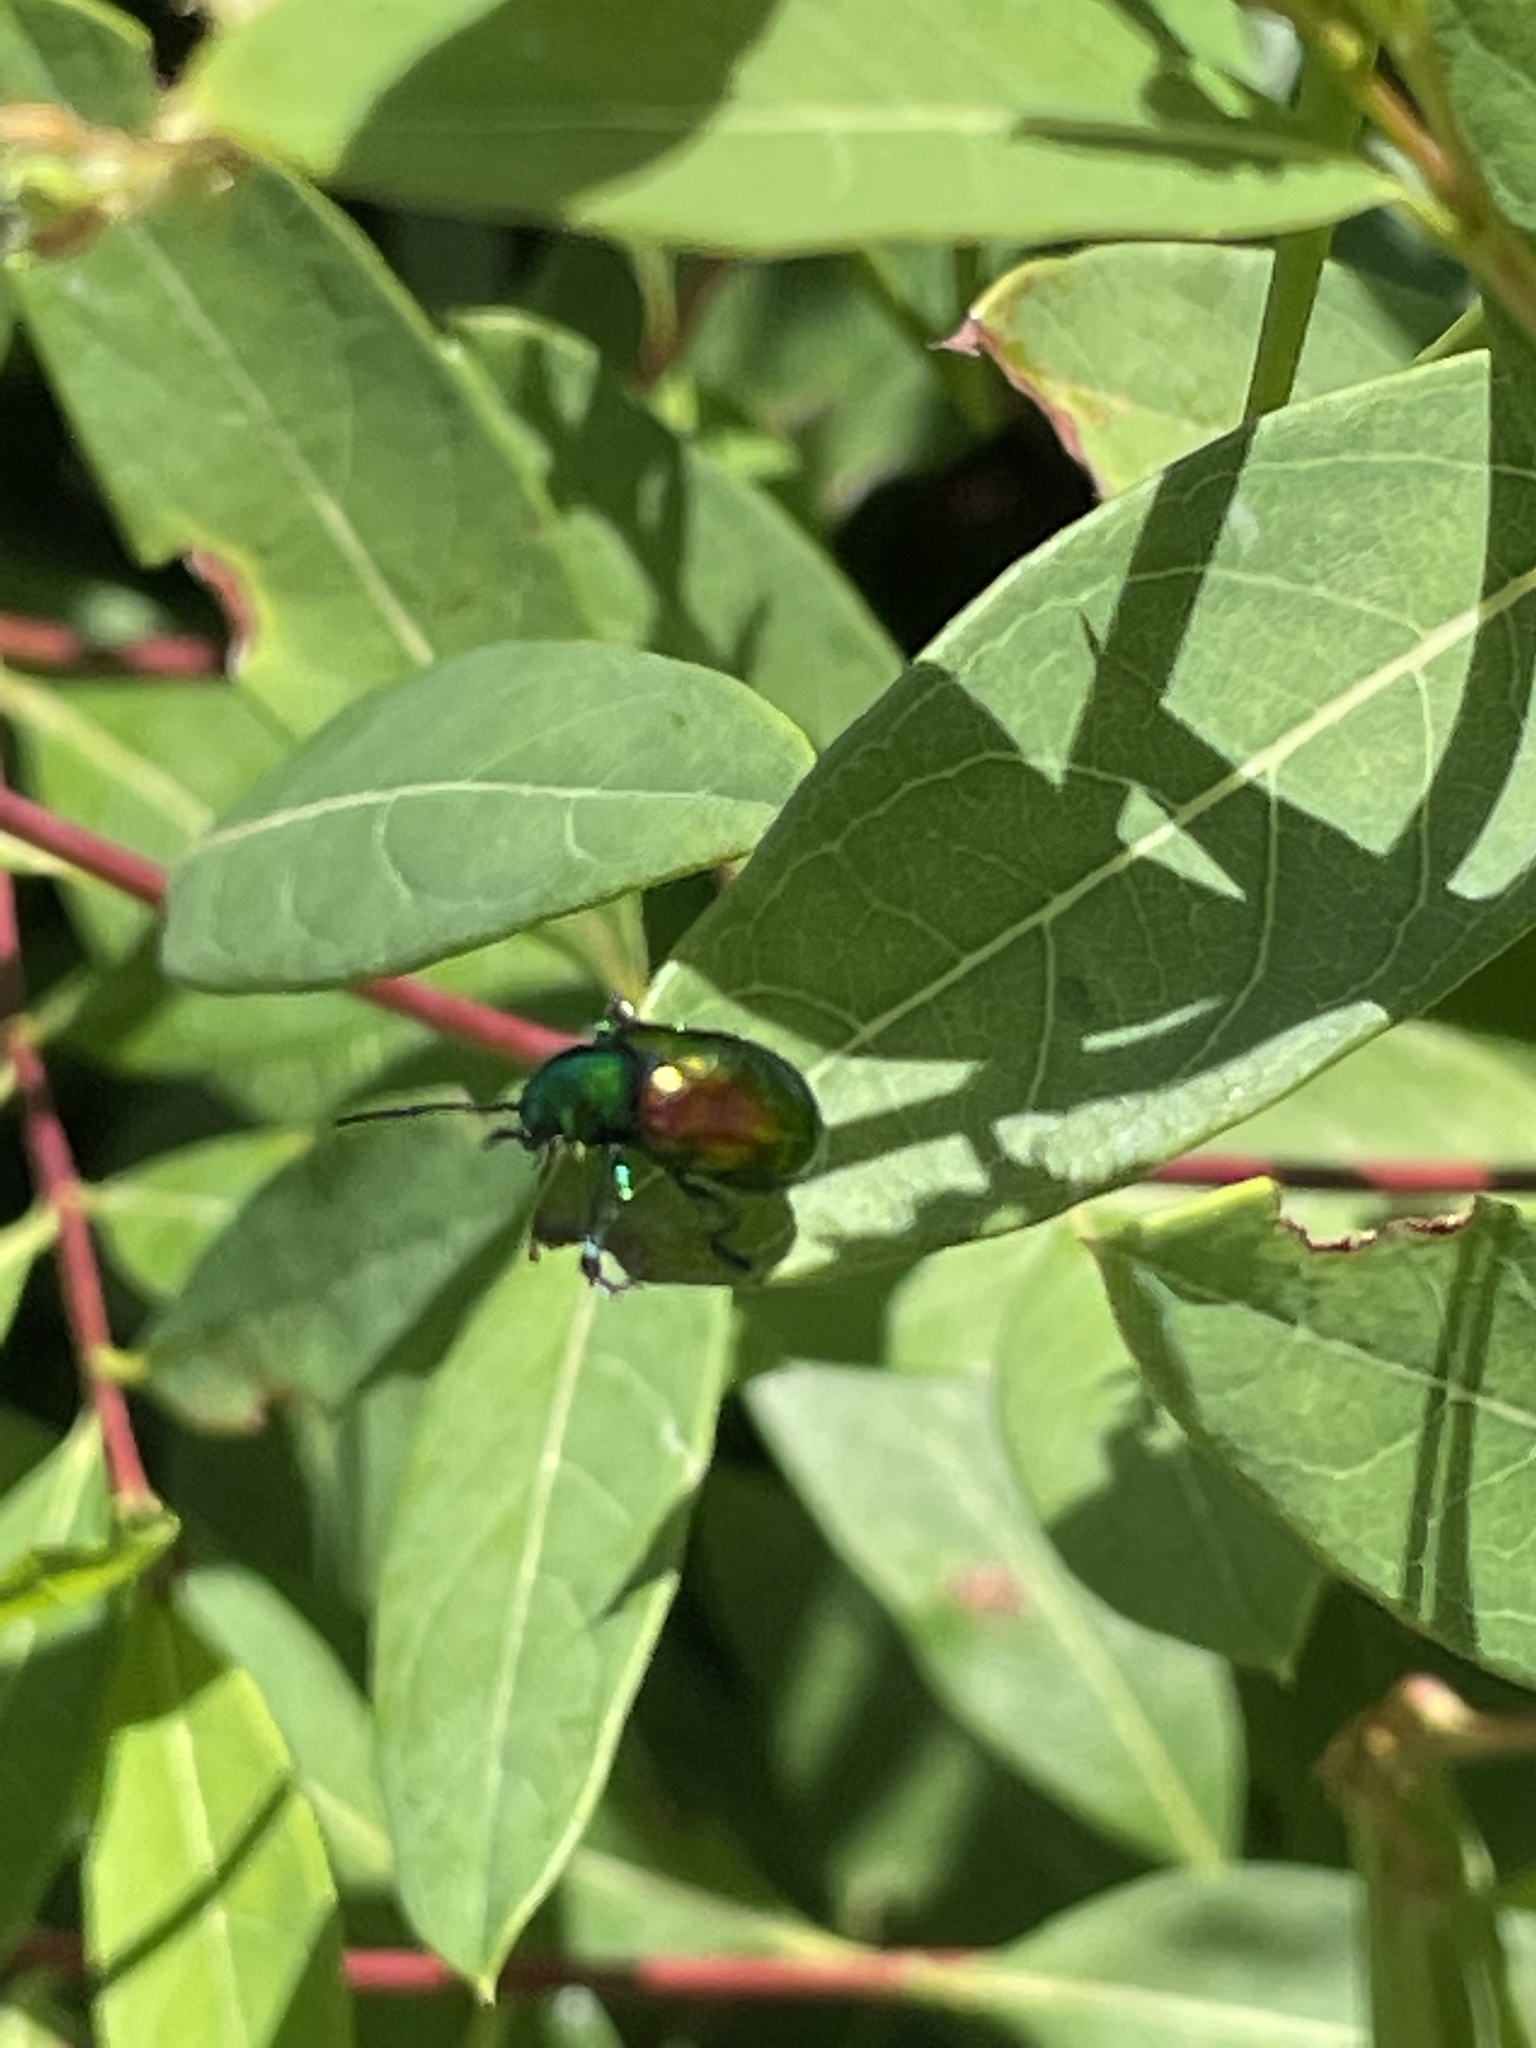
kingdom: Animalia
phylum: Arthropoda
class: Insecta
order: Coleoptera
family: Chrysomelidae
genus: Chrysochus
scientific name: Chrysochus auratus
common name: Dogbane leaf beetle
